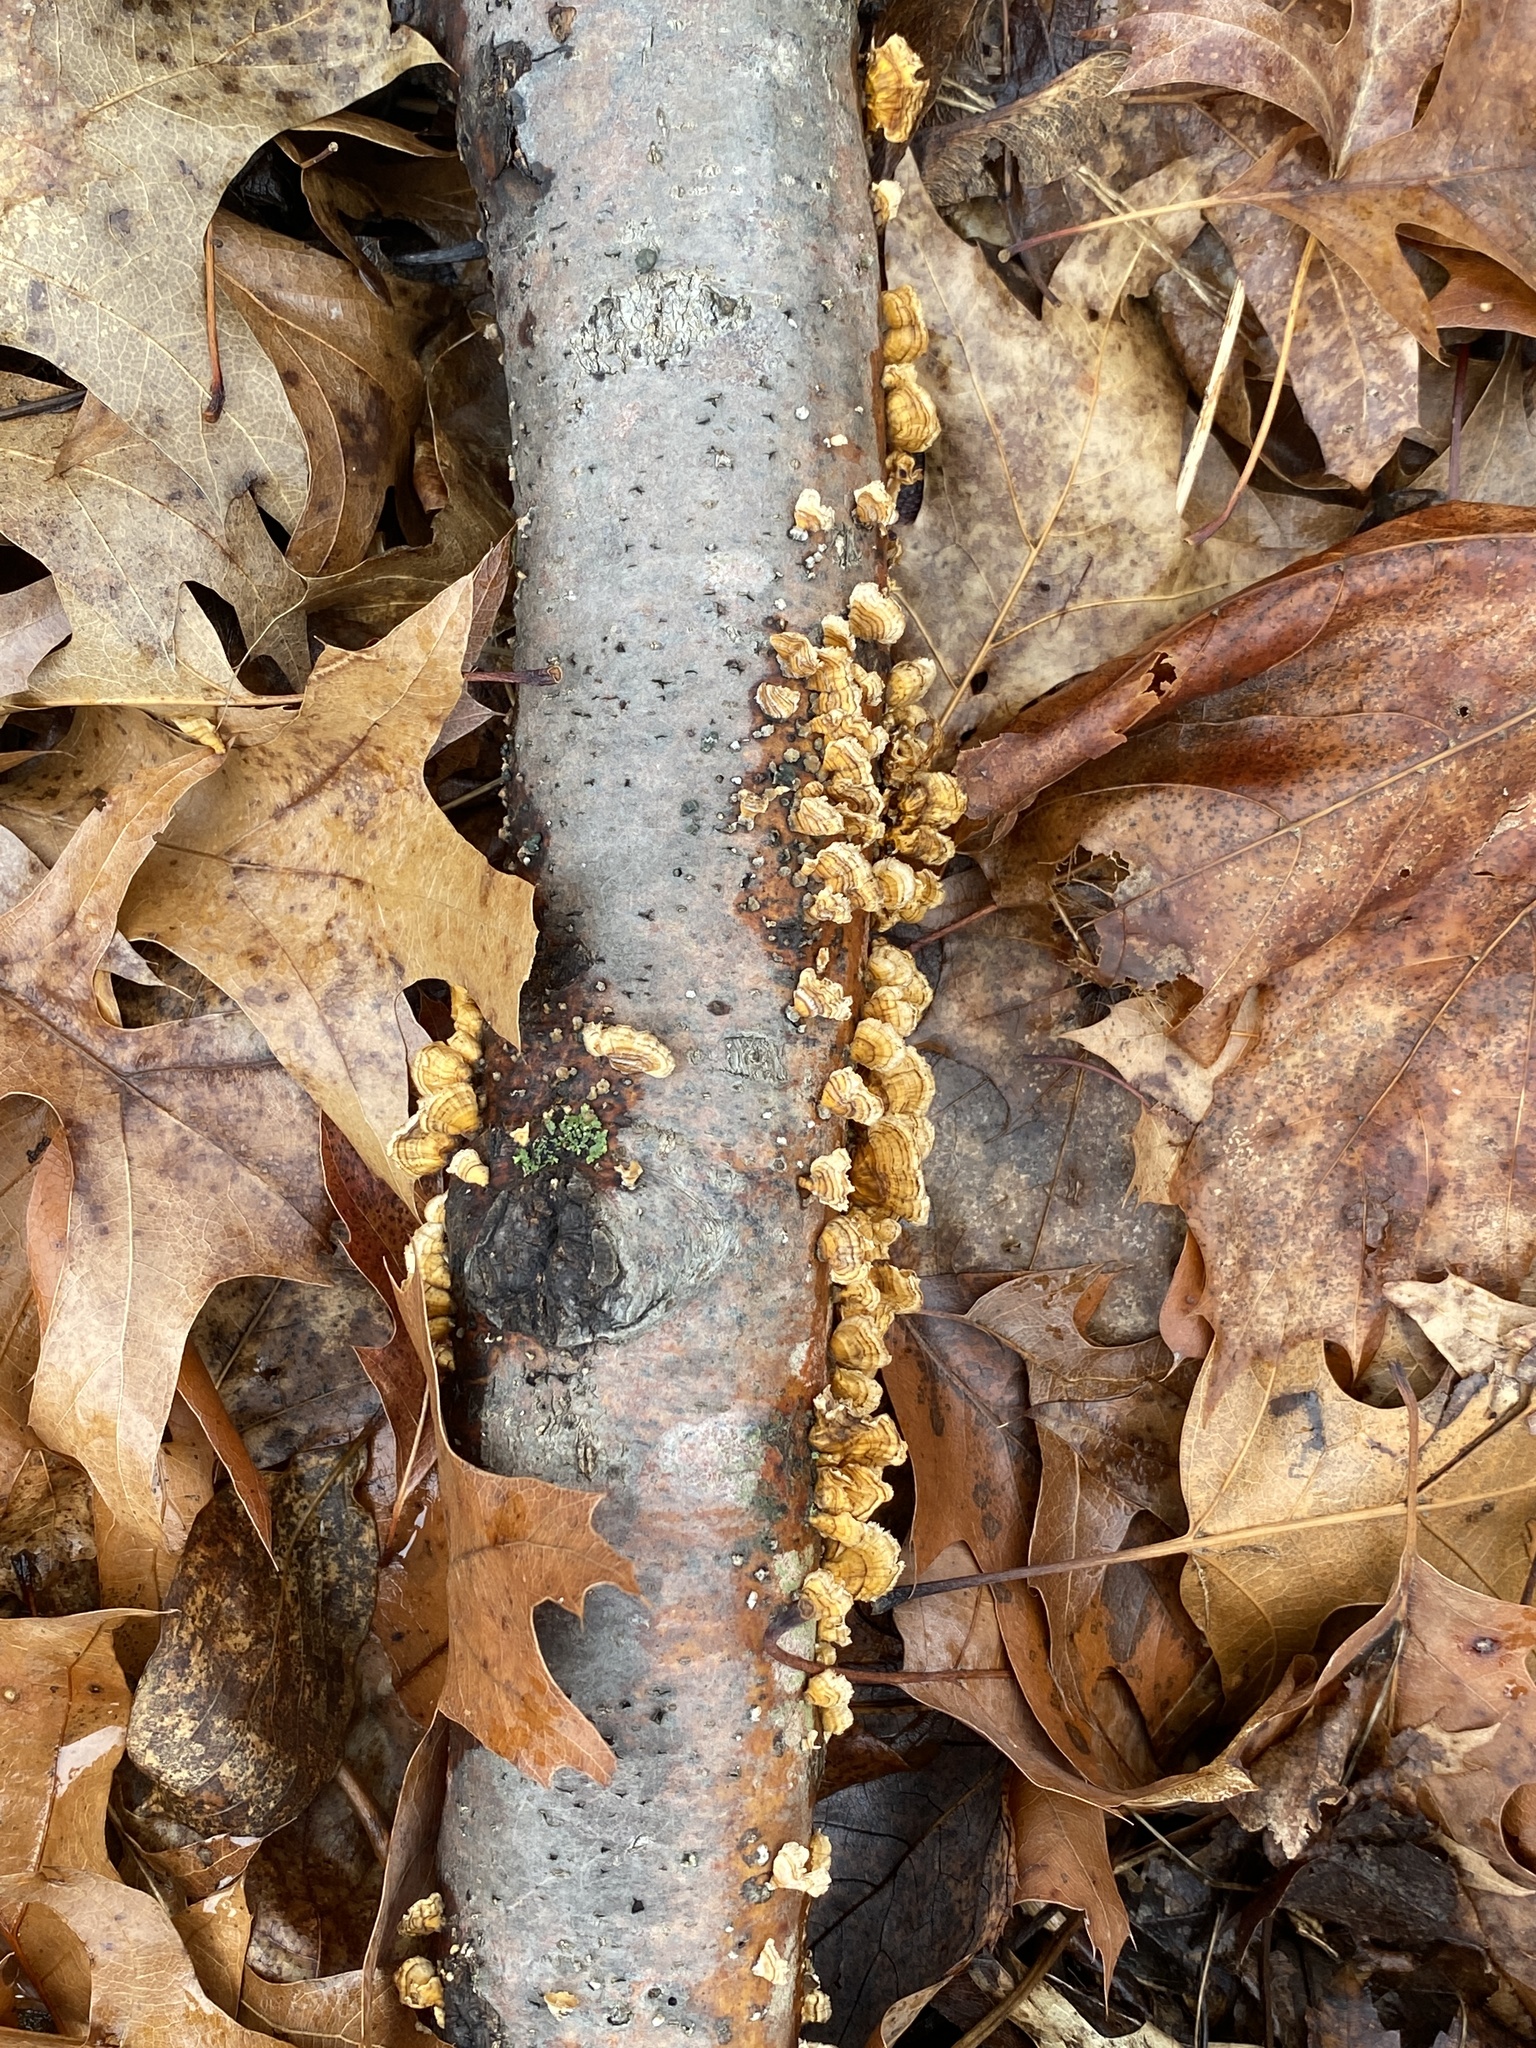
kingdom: Fungi
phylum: Basidiomycota
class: Agaricomycetes
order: Russulales
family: Stereaceae
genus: Stereum
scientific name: Stereum complicatum
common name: Crowded parchment
